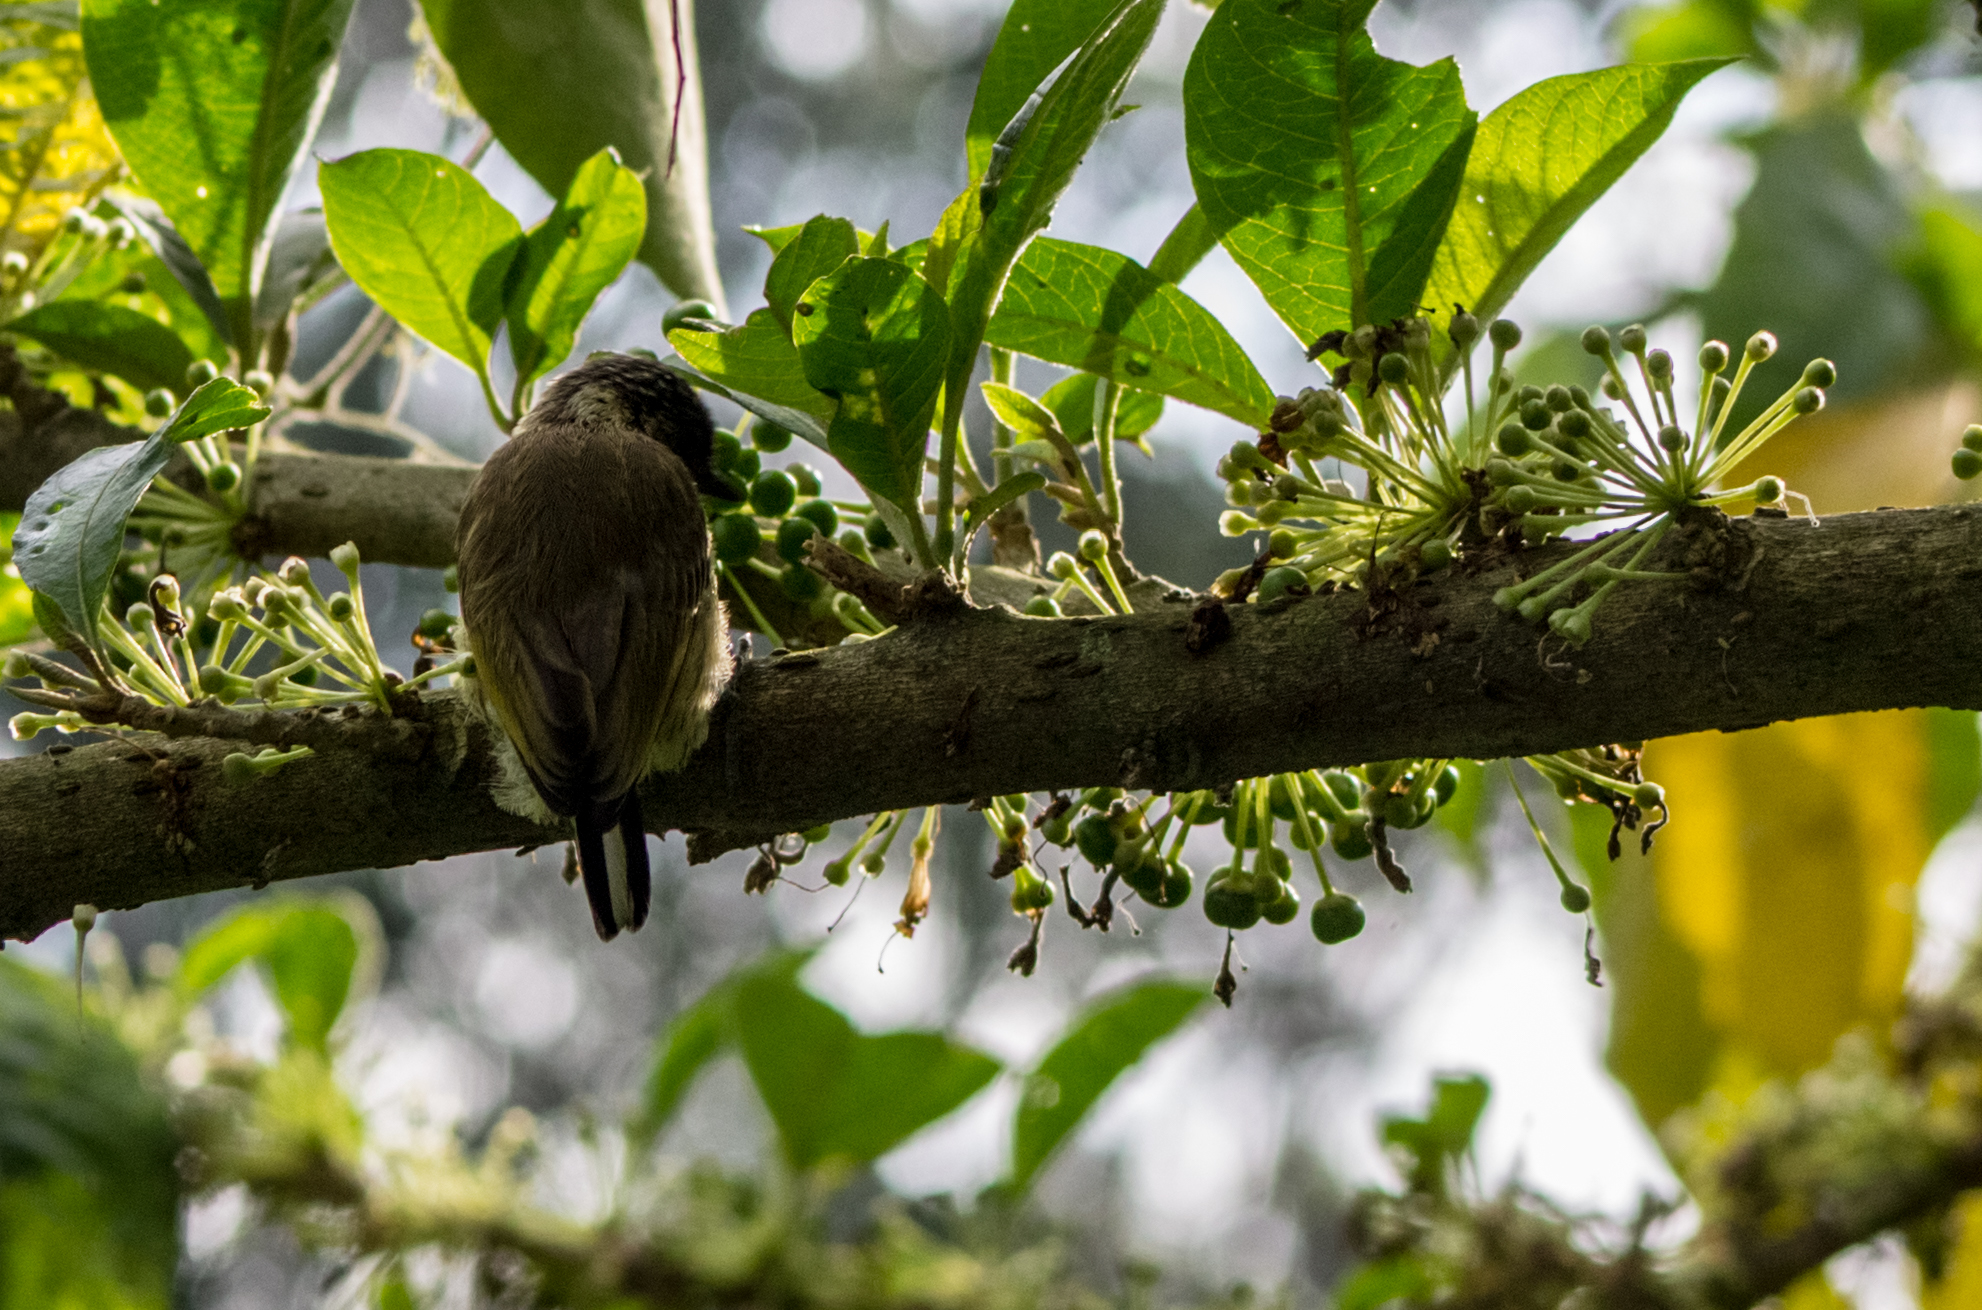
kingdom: Animalia
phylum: Chordata
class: Aves
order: Piciformes
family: Picidae
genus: Picumnus
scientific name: Picumnus olivaceus
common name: Olivaceous piculet
